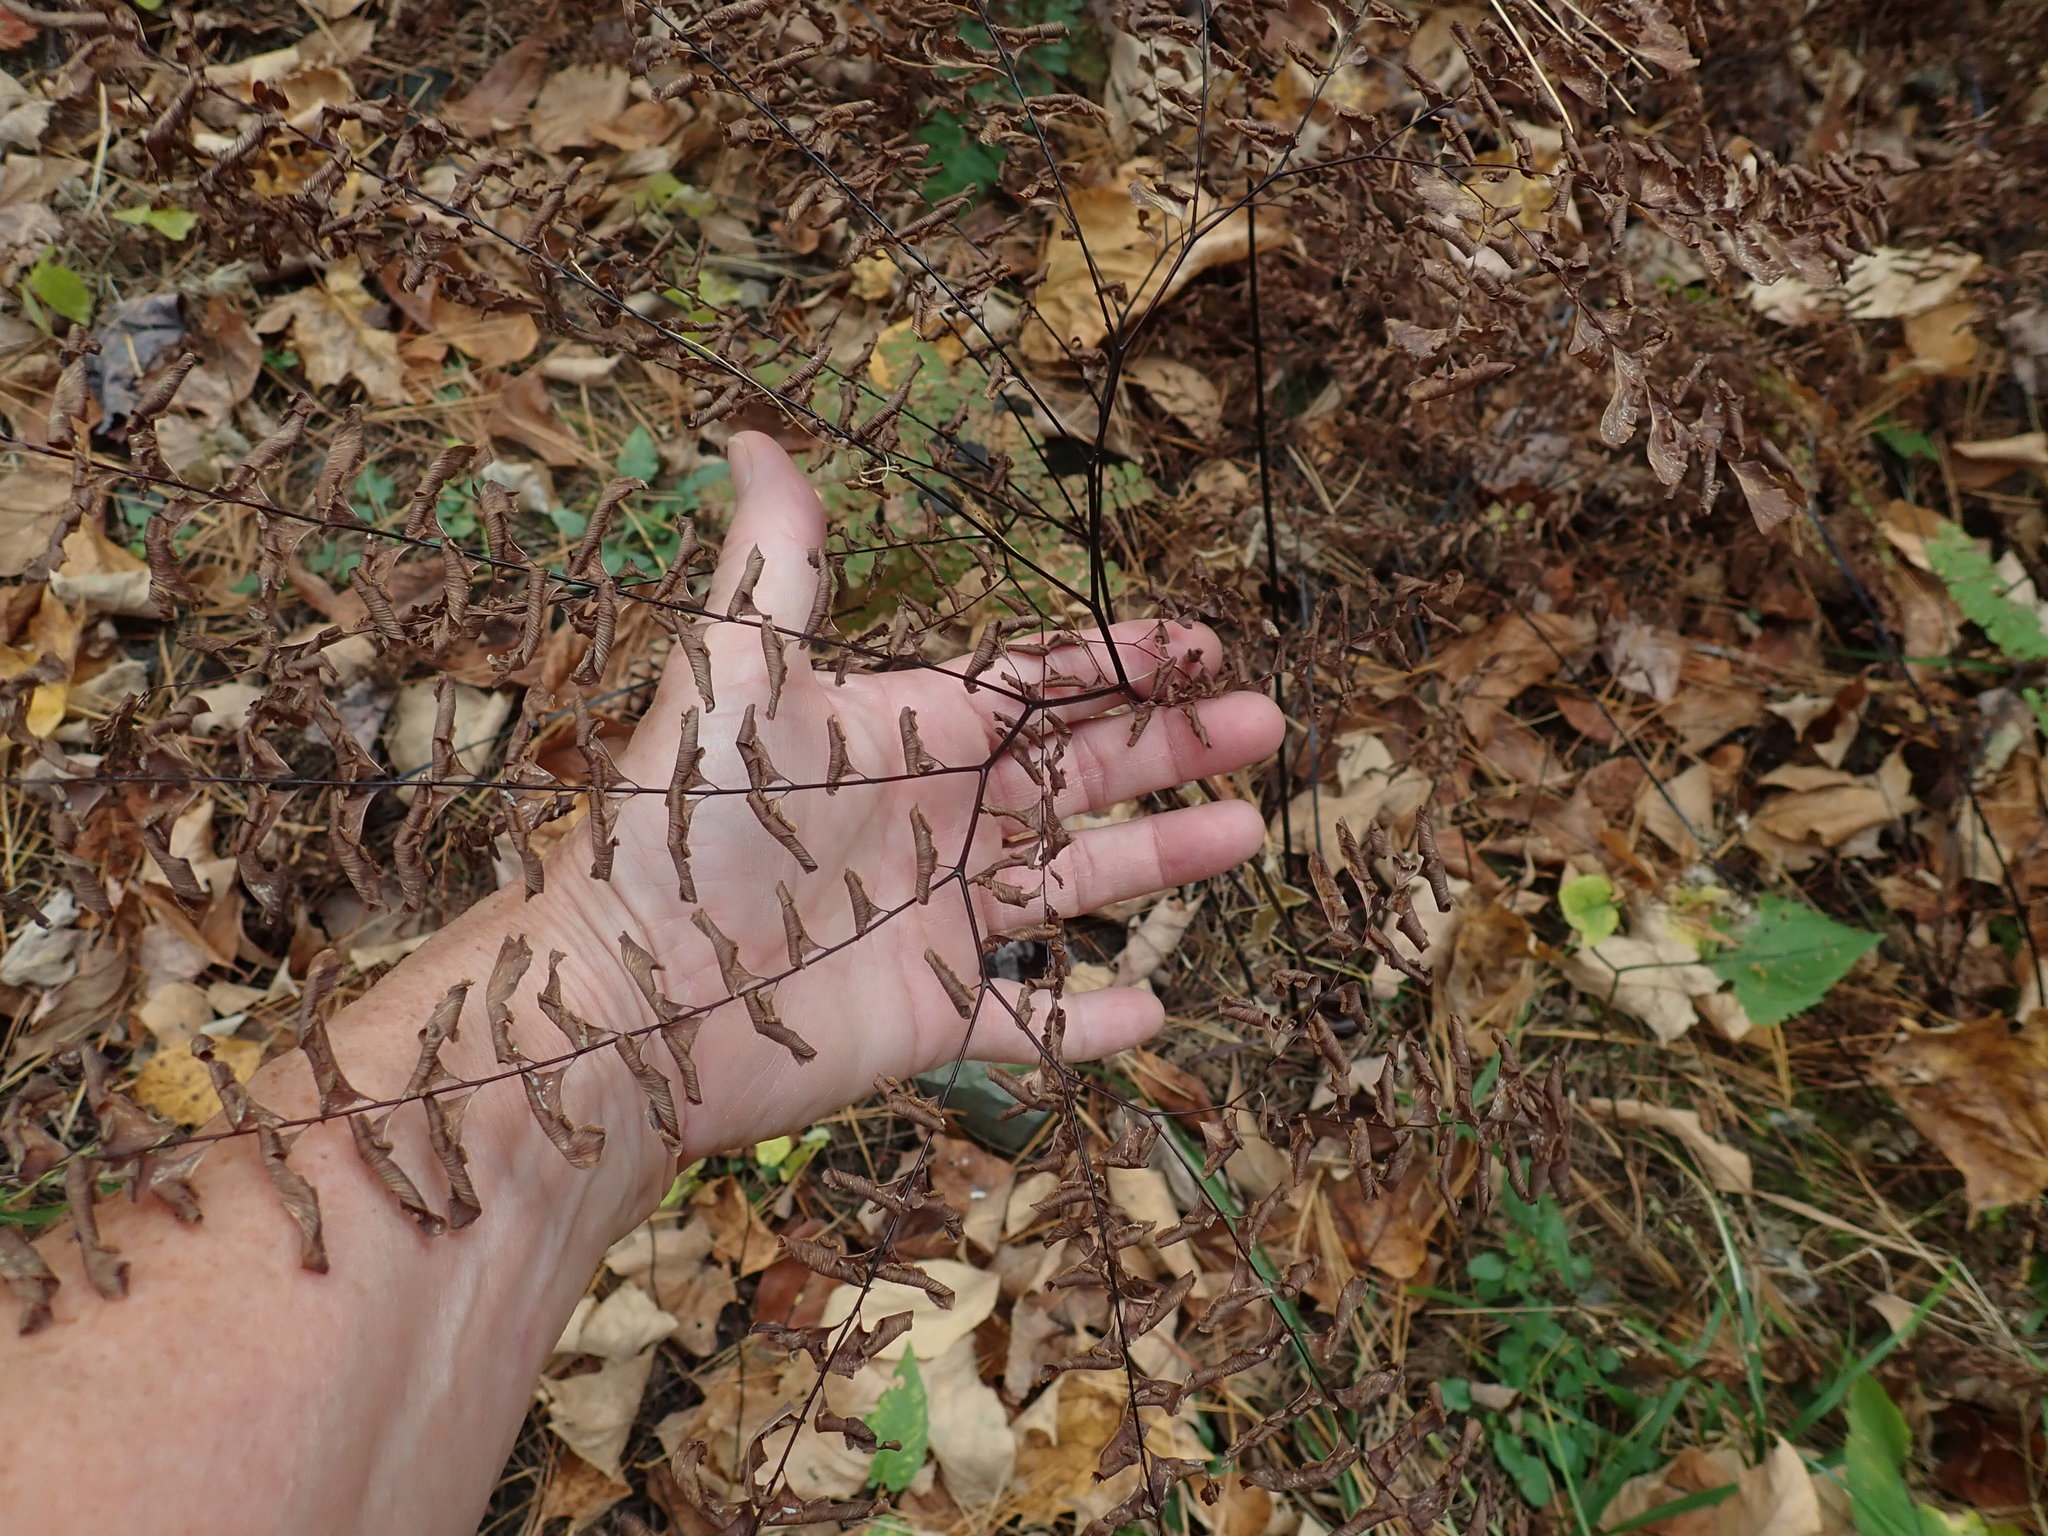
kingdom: Plantae
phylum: Tracheophyta
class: Polypodiopsida
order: Polypodiales
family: Pteridaceae
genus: Adiantum
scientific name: Adiantum pedatum
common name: Five-finger fern
